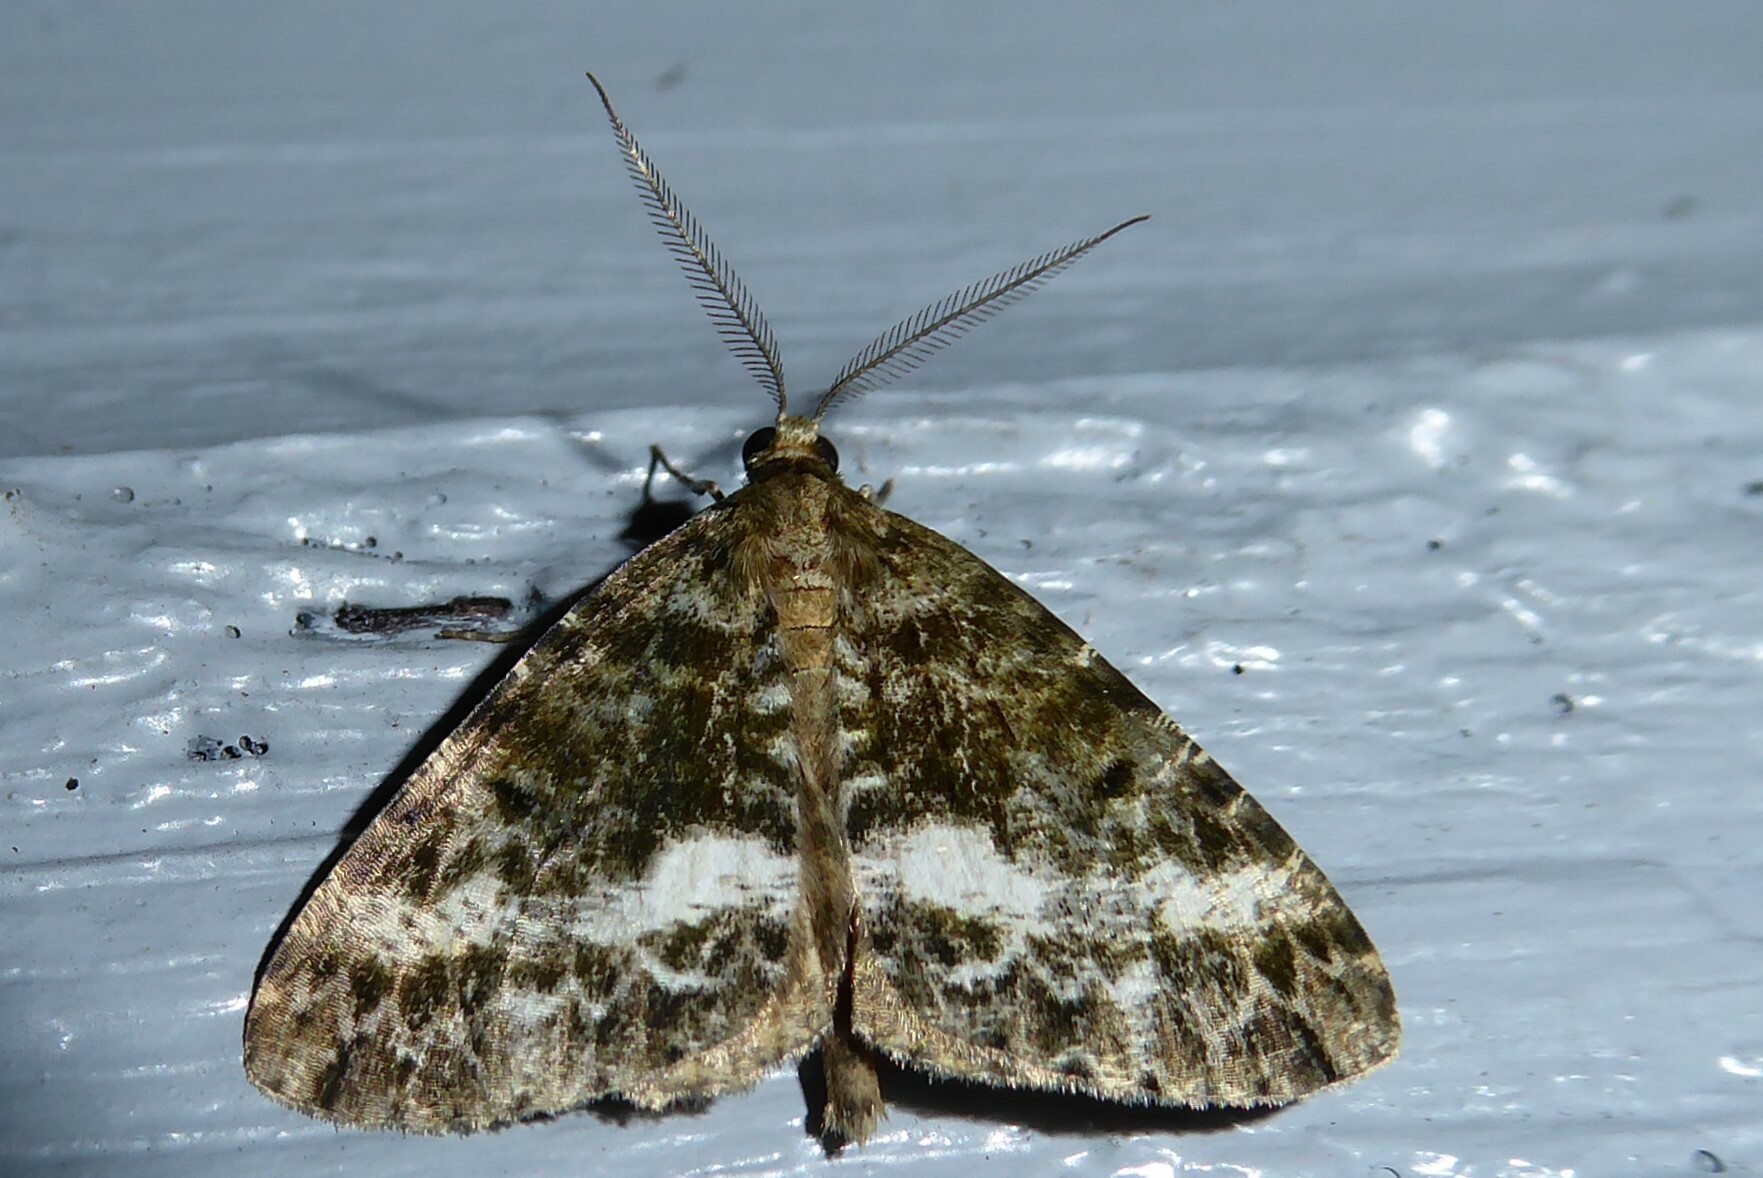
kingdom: Animalia
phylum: Arthropoda
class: Insecta
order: Lepidoptera
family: Geometridae
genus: Pseudocoremia
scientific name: Pseudocoremia lactiflua
